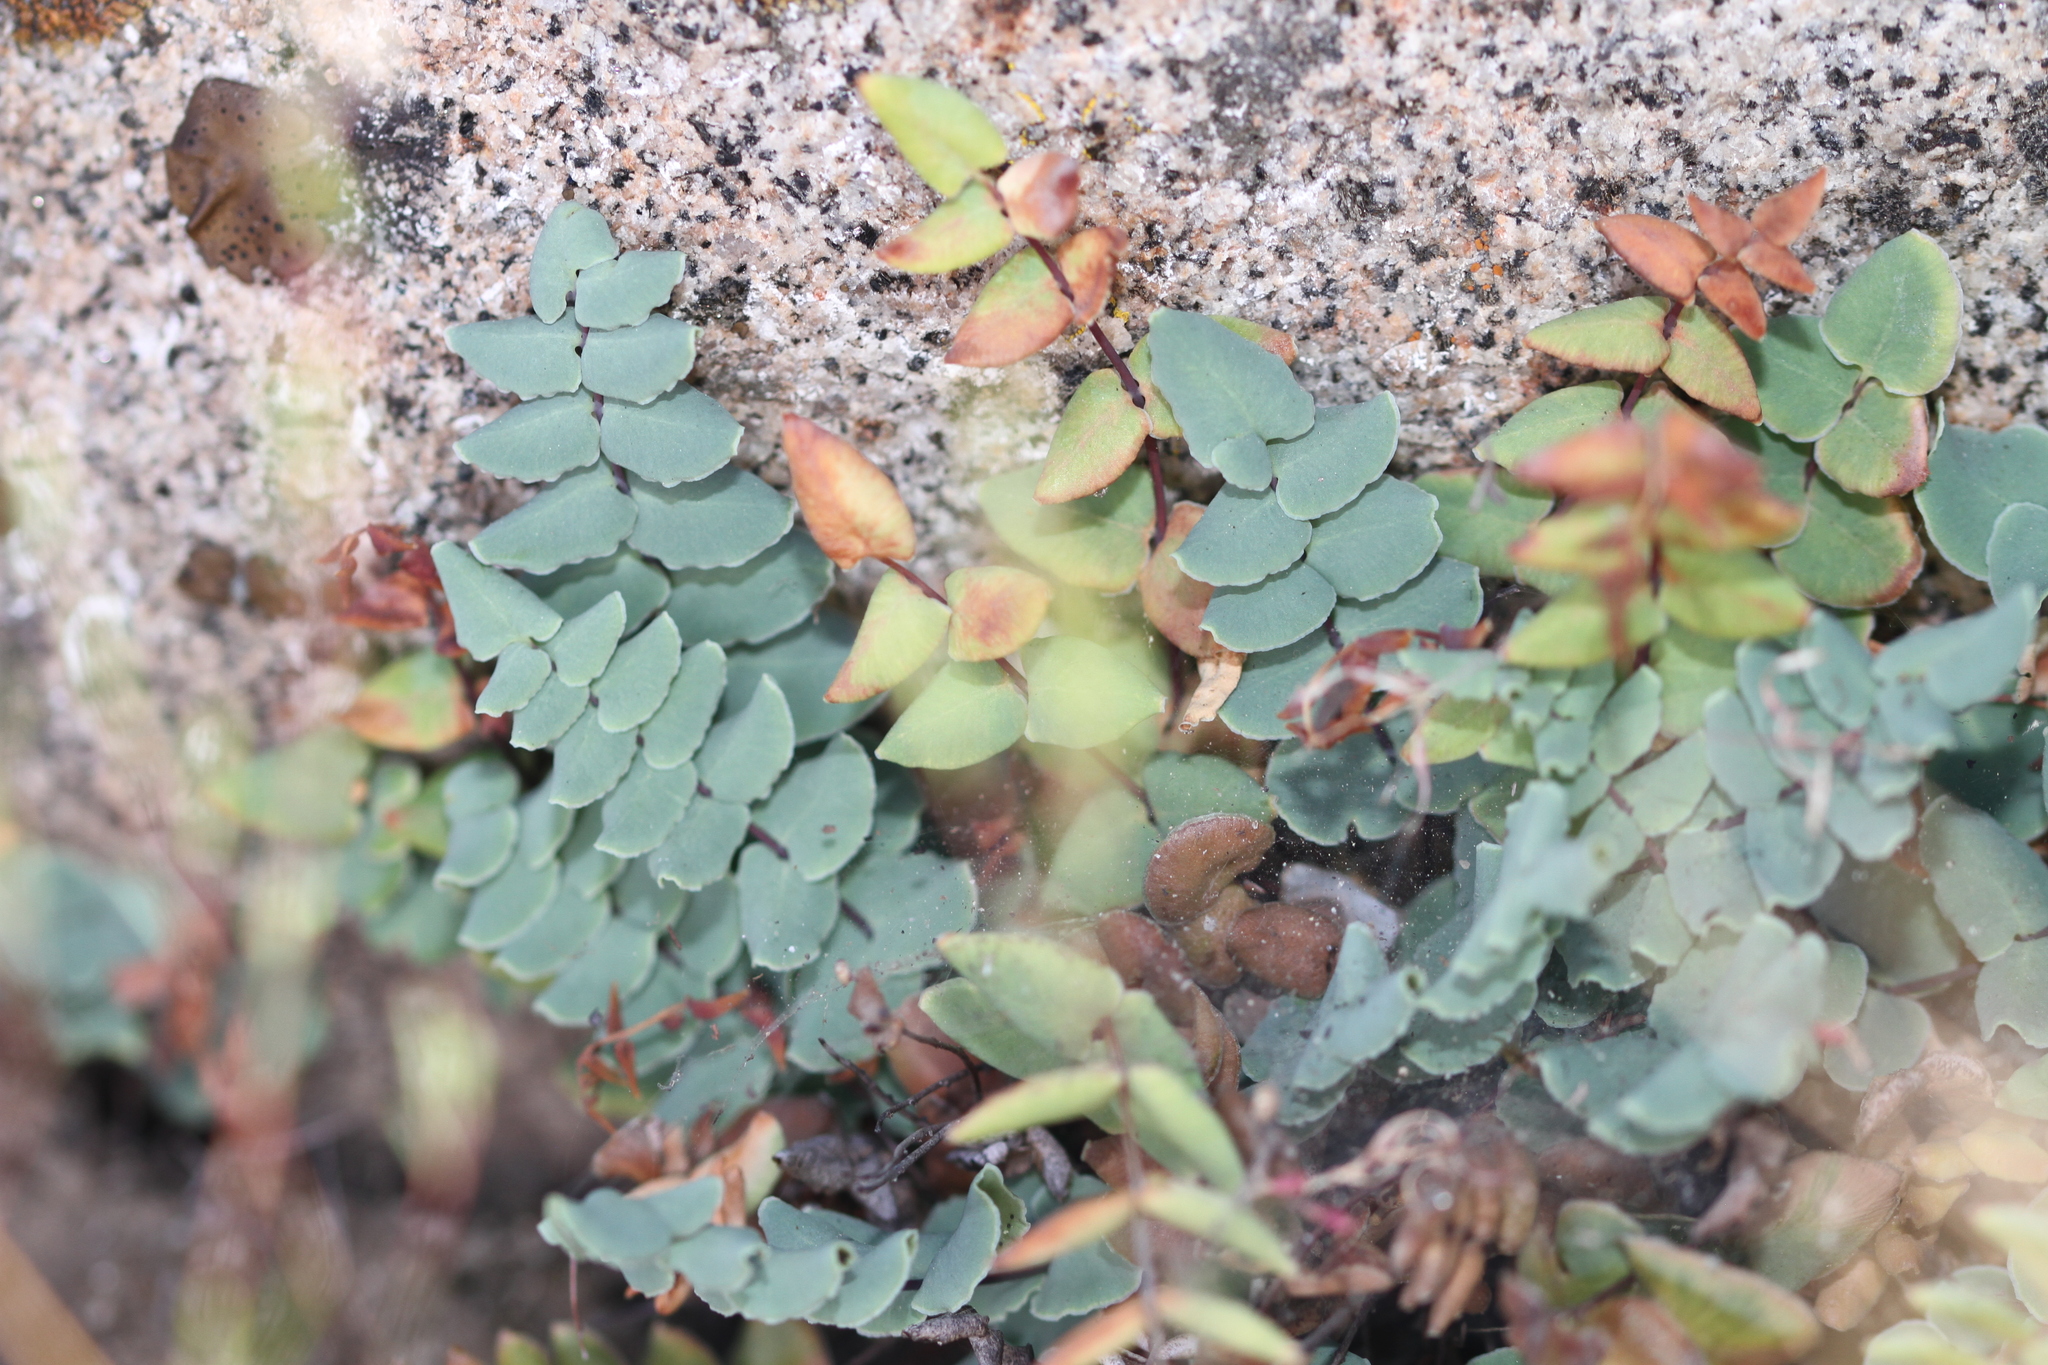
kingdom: Plantae
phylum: Tracheophyta
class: Polypodiopsida
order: Polypodiales
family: Pteridaceae
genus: Pellaea
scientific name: Pellaea bridgesii
